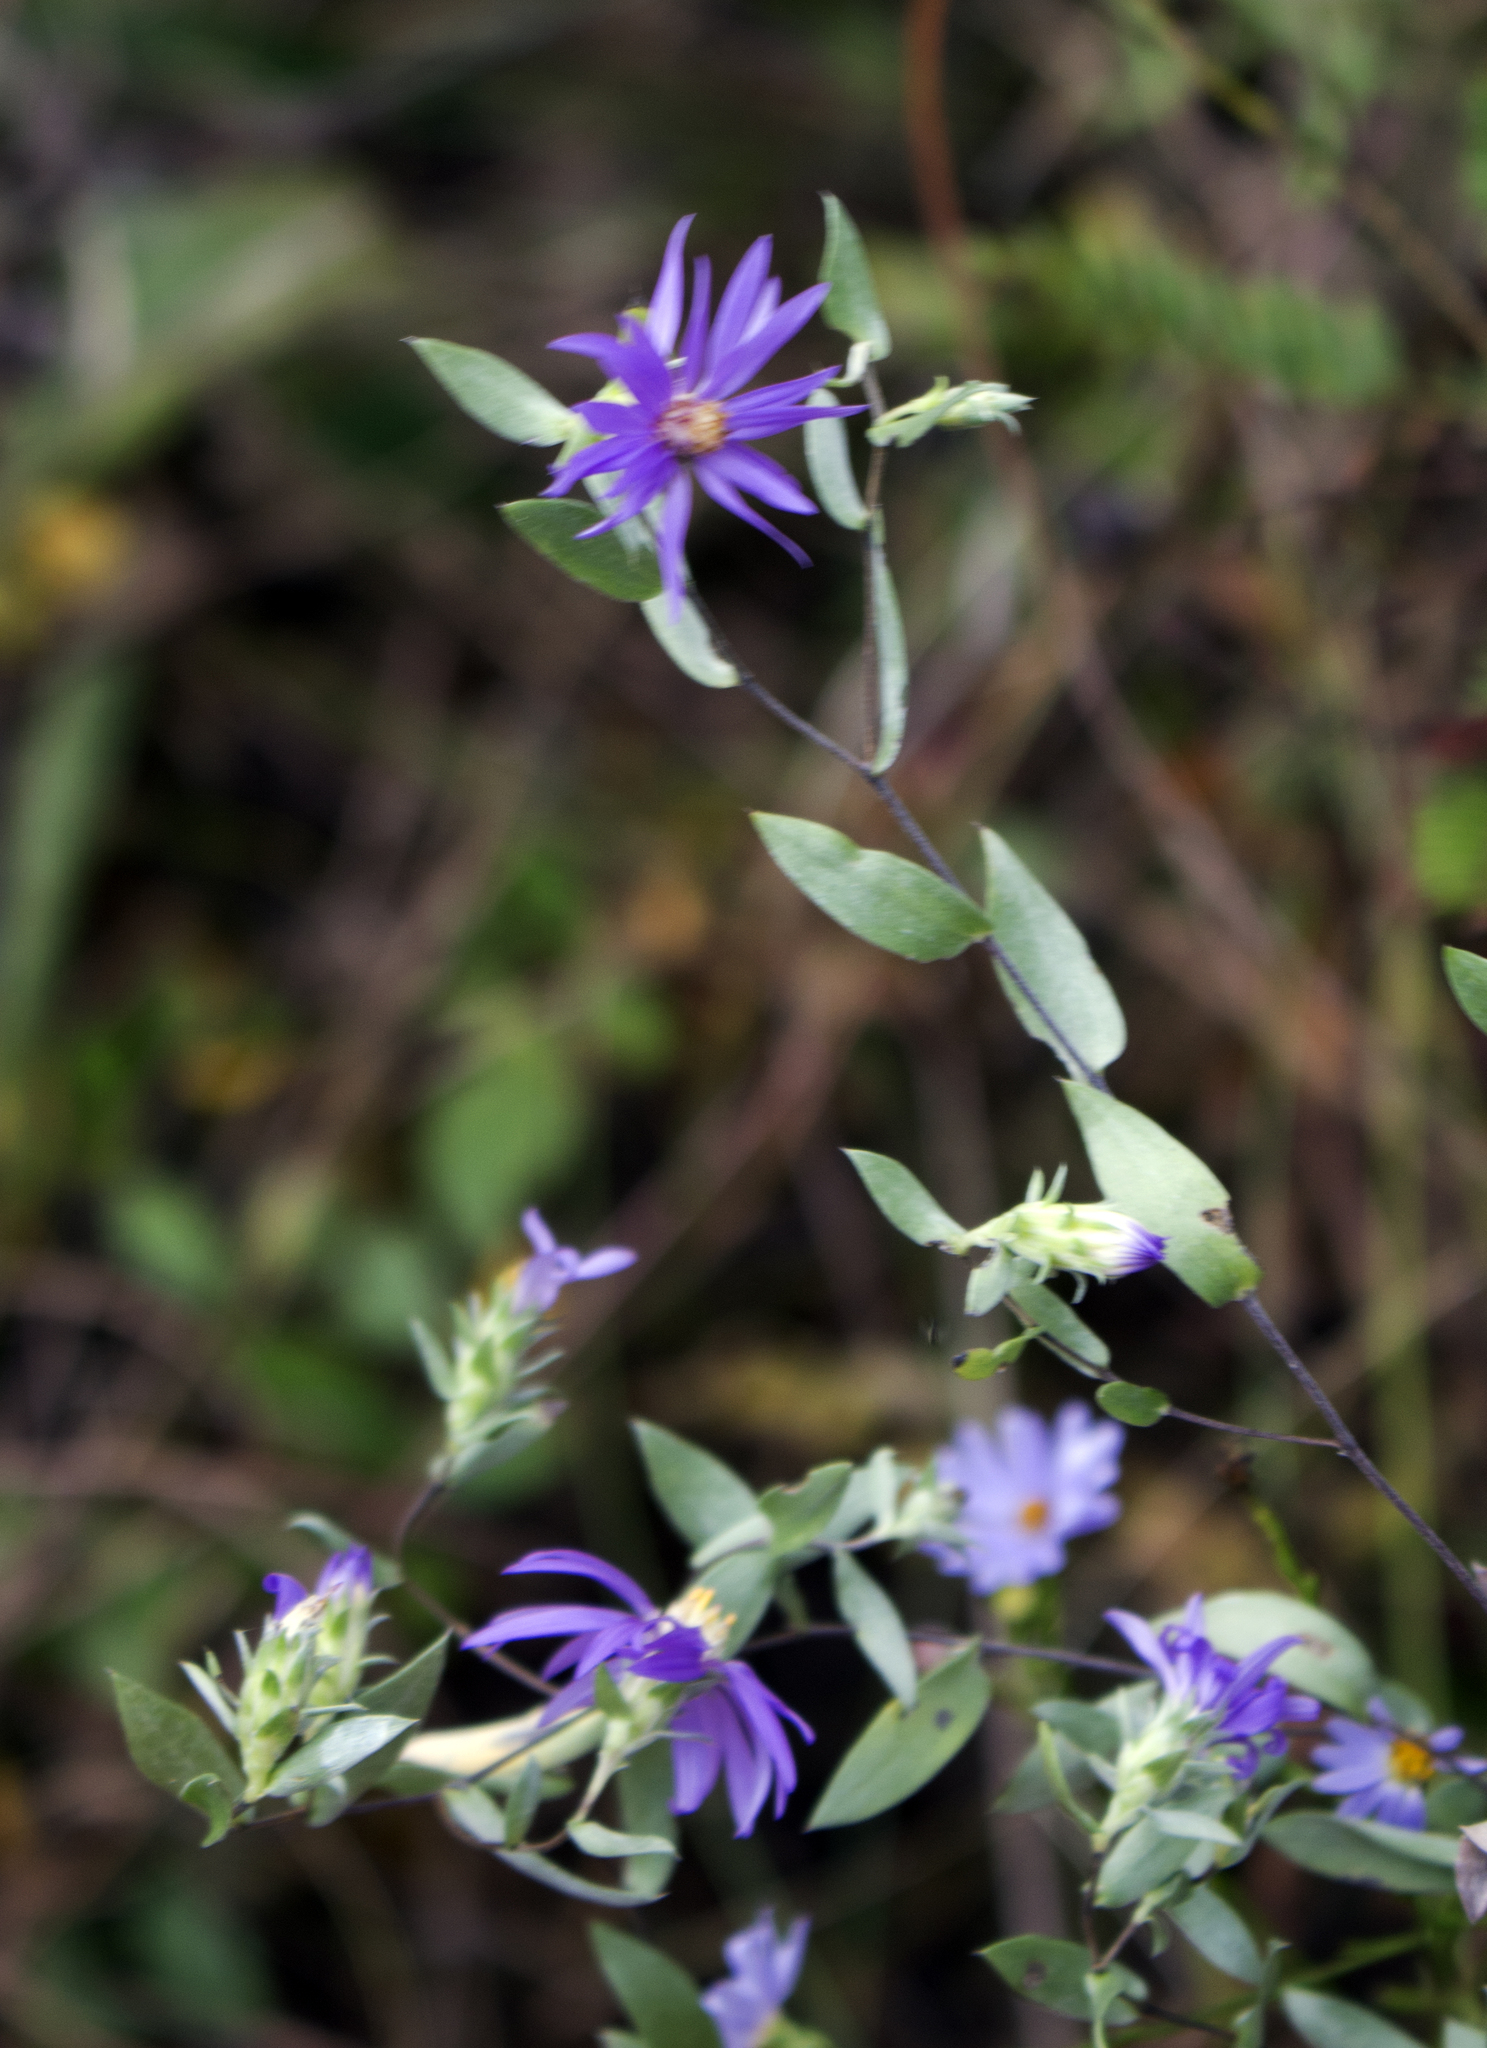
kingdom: Plantae
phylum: Tracheophyta
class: Magnoliopsida
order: Asterales
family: Asteraceae
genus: Symphyotrichum
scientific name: Symphyotrichum sericeum
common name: Silky aster
